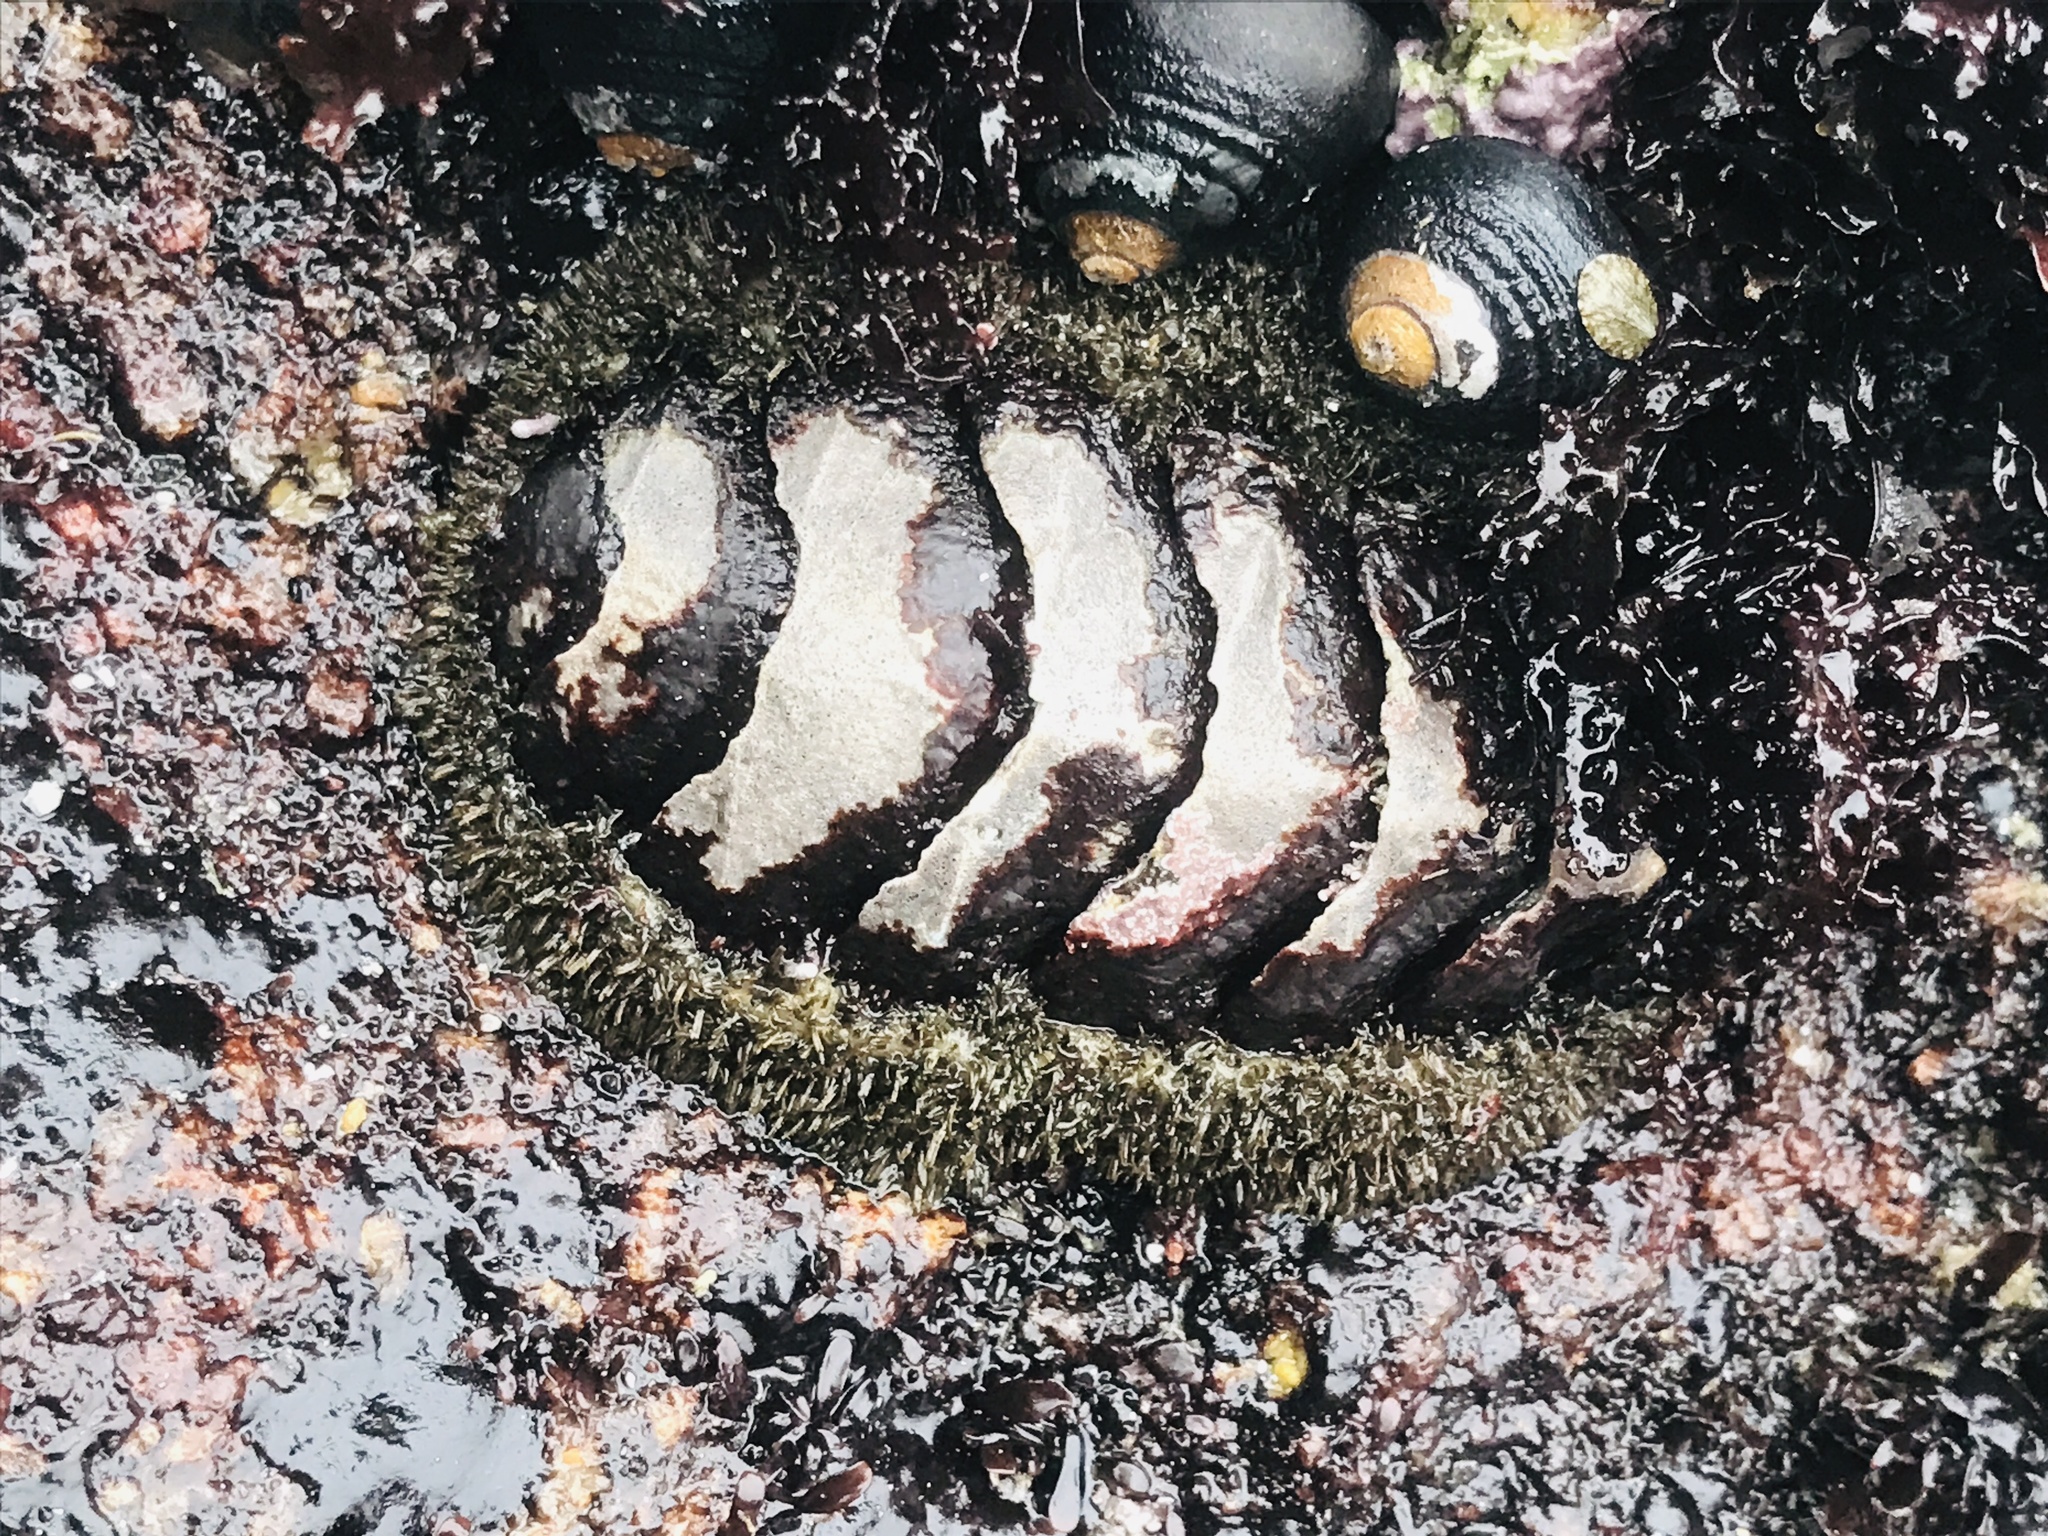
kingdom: Animalia
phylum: Mollusca
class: Polyplacophora
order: Chitonida
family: Mopaliidae
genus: Mopalia
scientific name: Mopalia muscosa
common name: Mossy chiton
